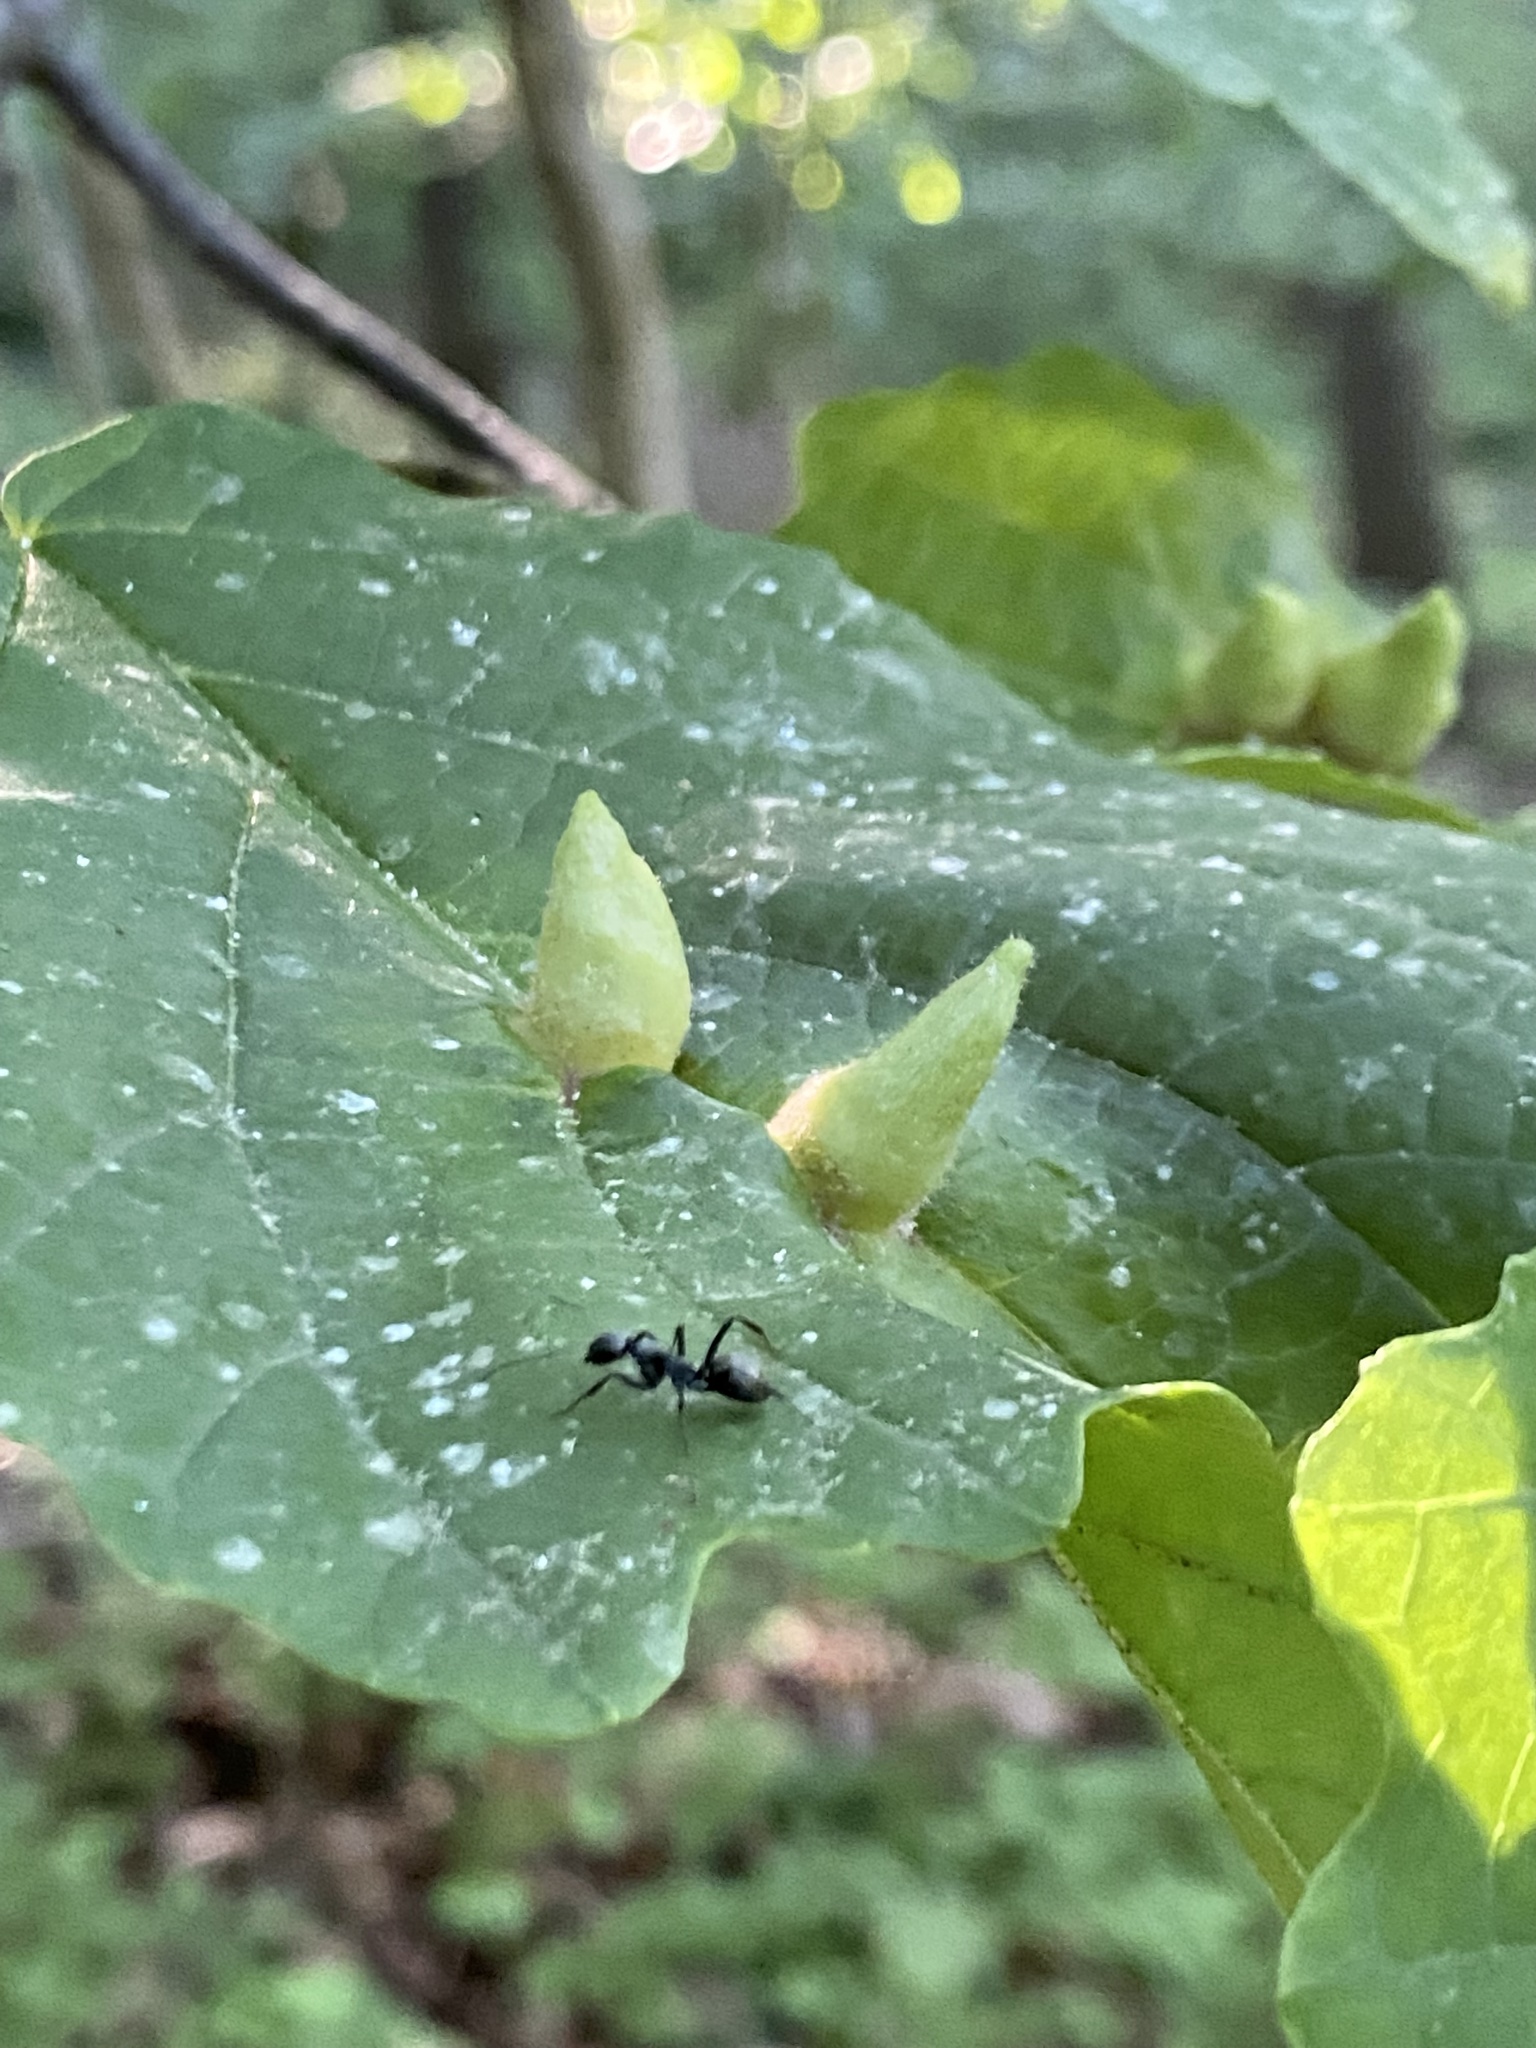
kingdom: Animalia
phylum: Arthropoda
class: Insecta
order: Hemiptera
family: Aphididae
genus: Hormaphis
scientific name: Hormaphis hamamelidis
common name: Witch-hazel cone gall aphid
